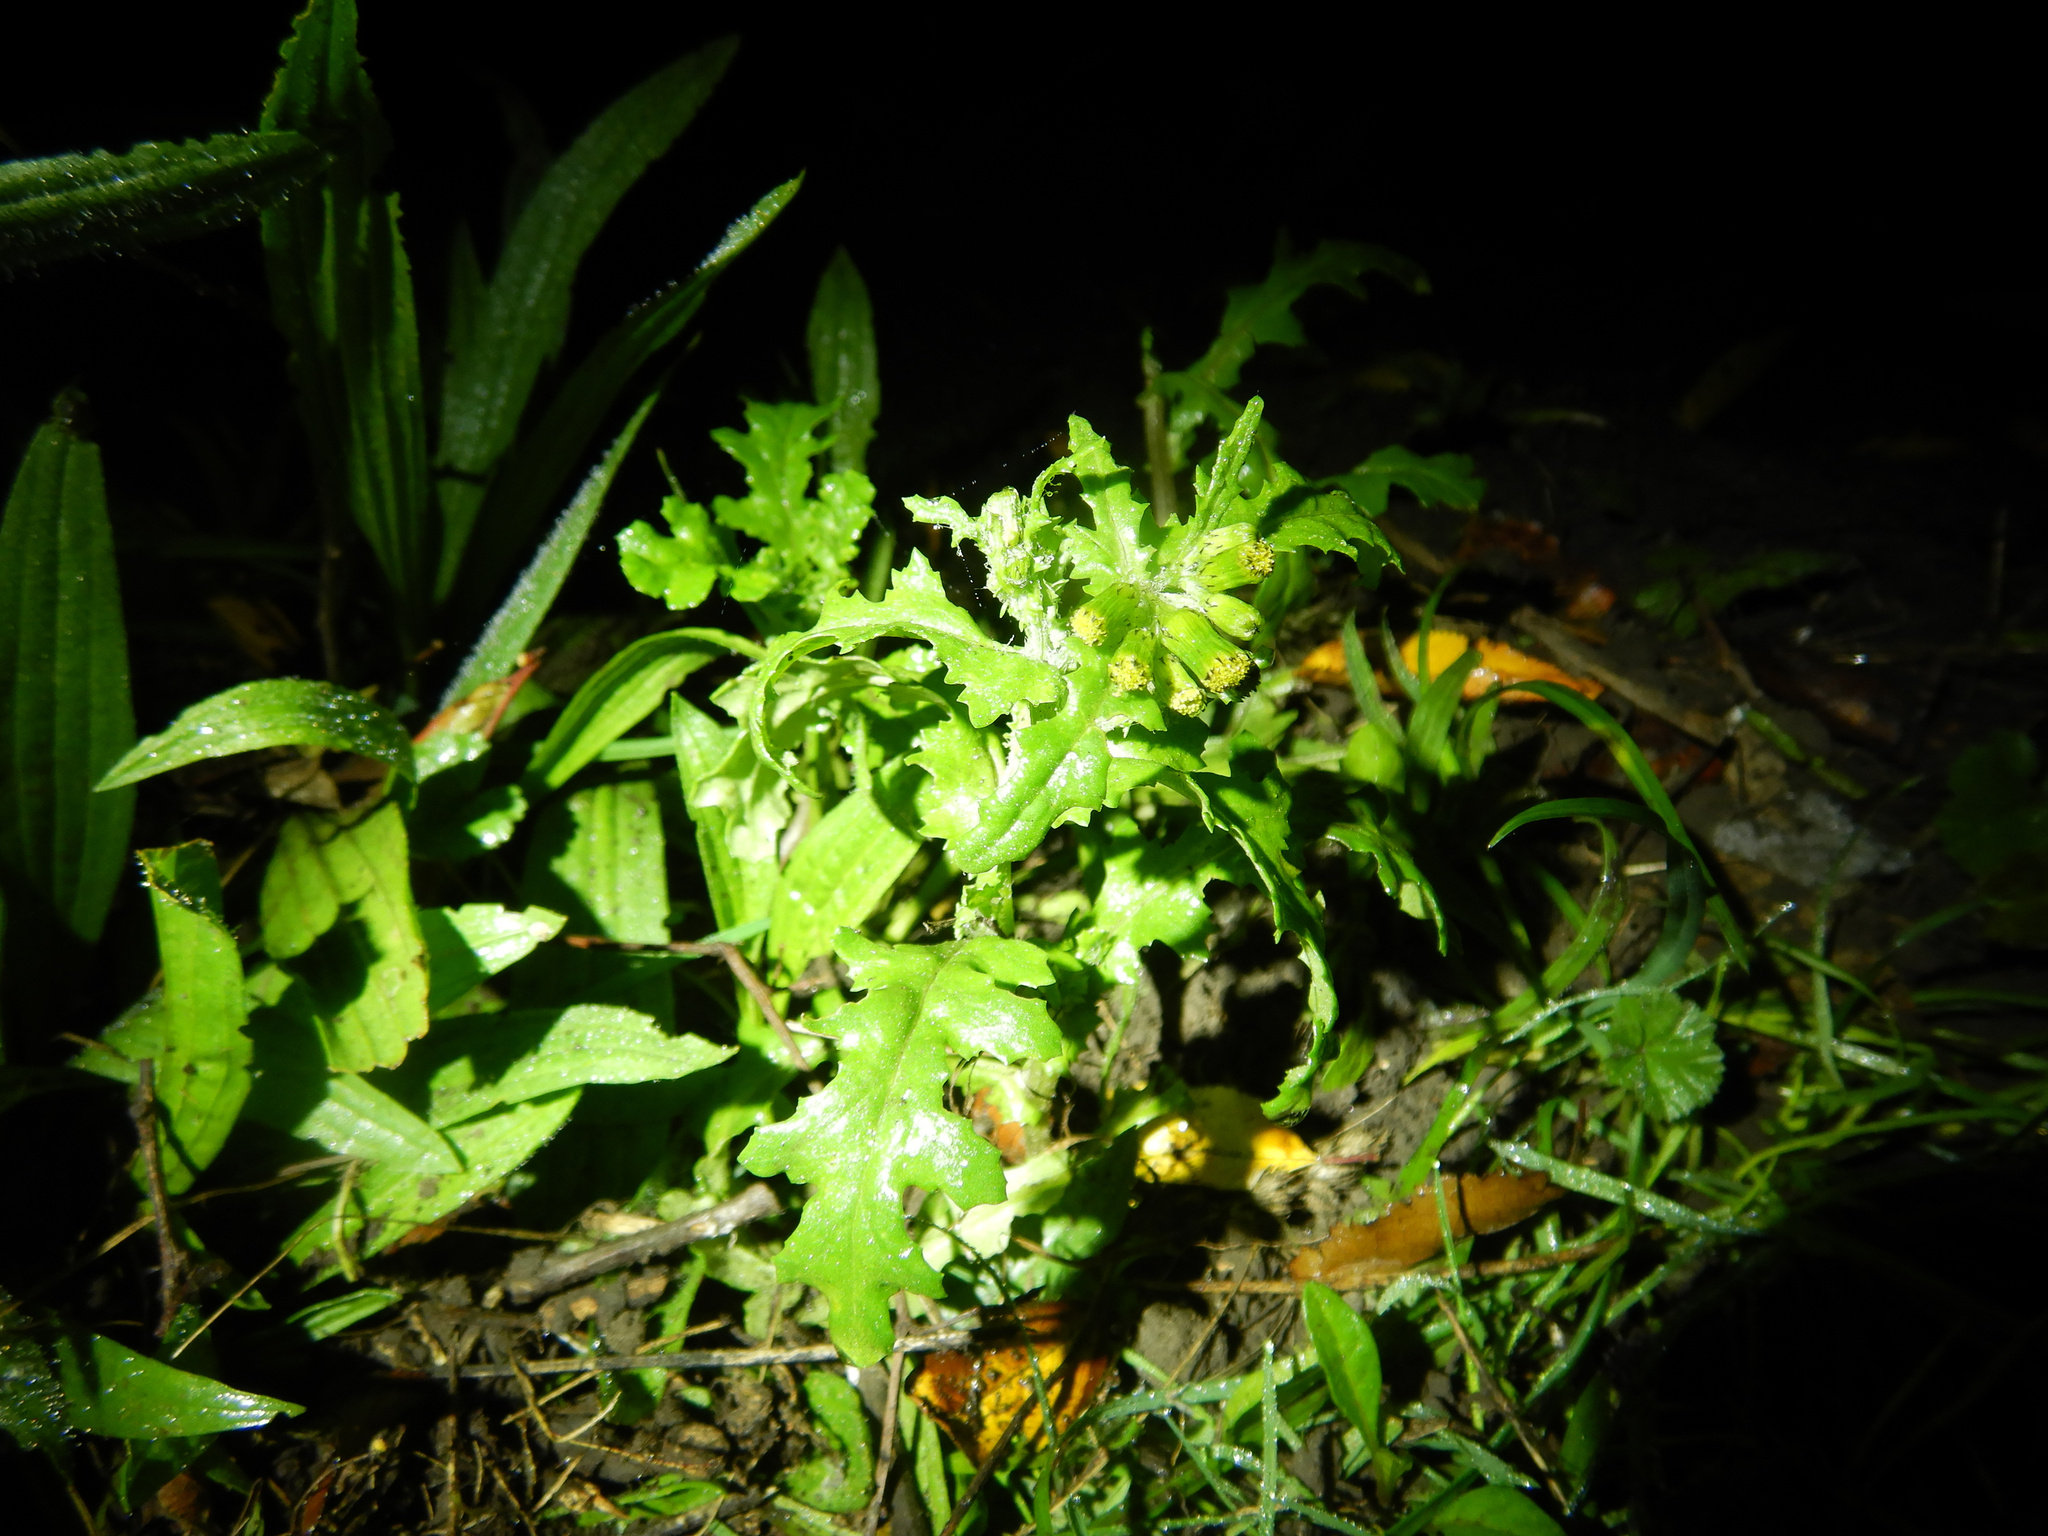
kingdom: Plantae
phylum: Tracheophyta
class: Magnoliopsida
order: Asterales
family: Asteraceae
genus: Senecio
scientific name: Senecio vulgaris
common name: Old-man-in-the-spring
